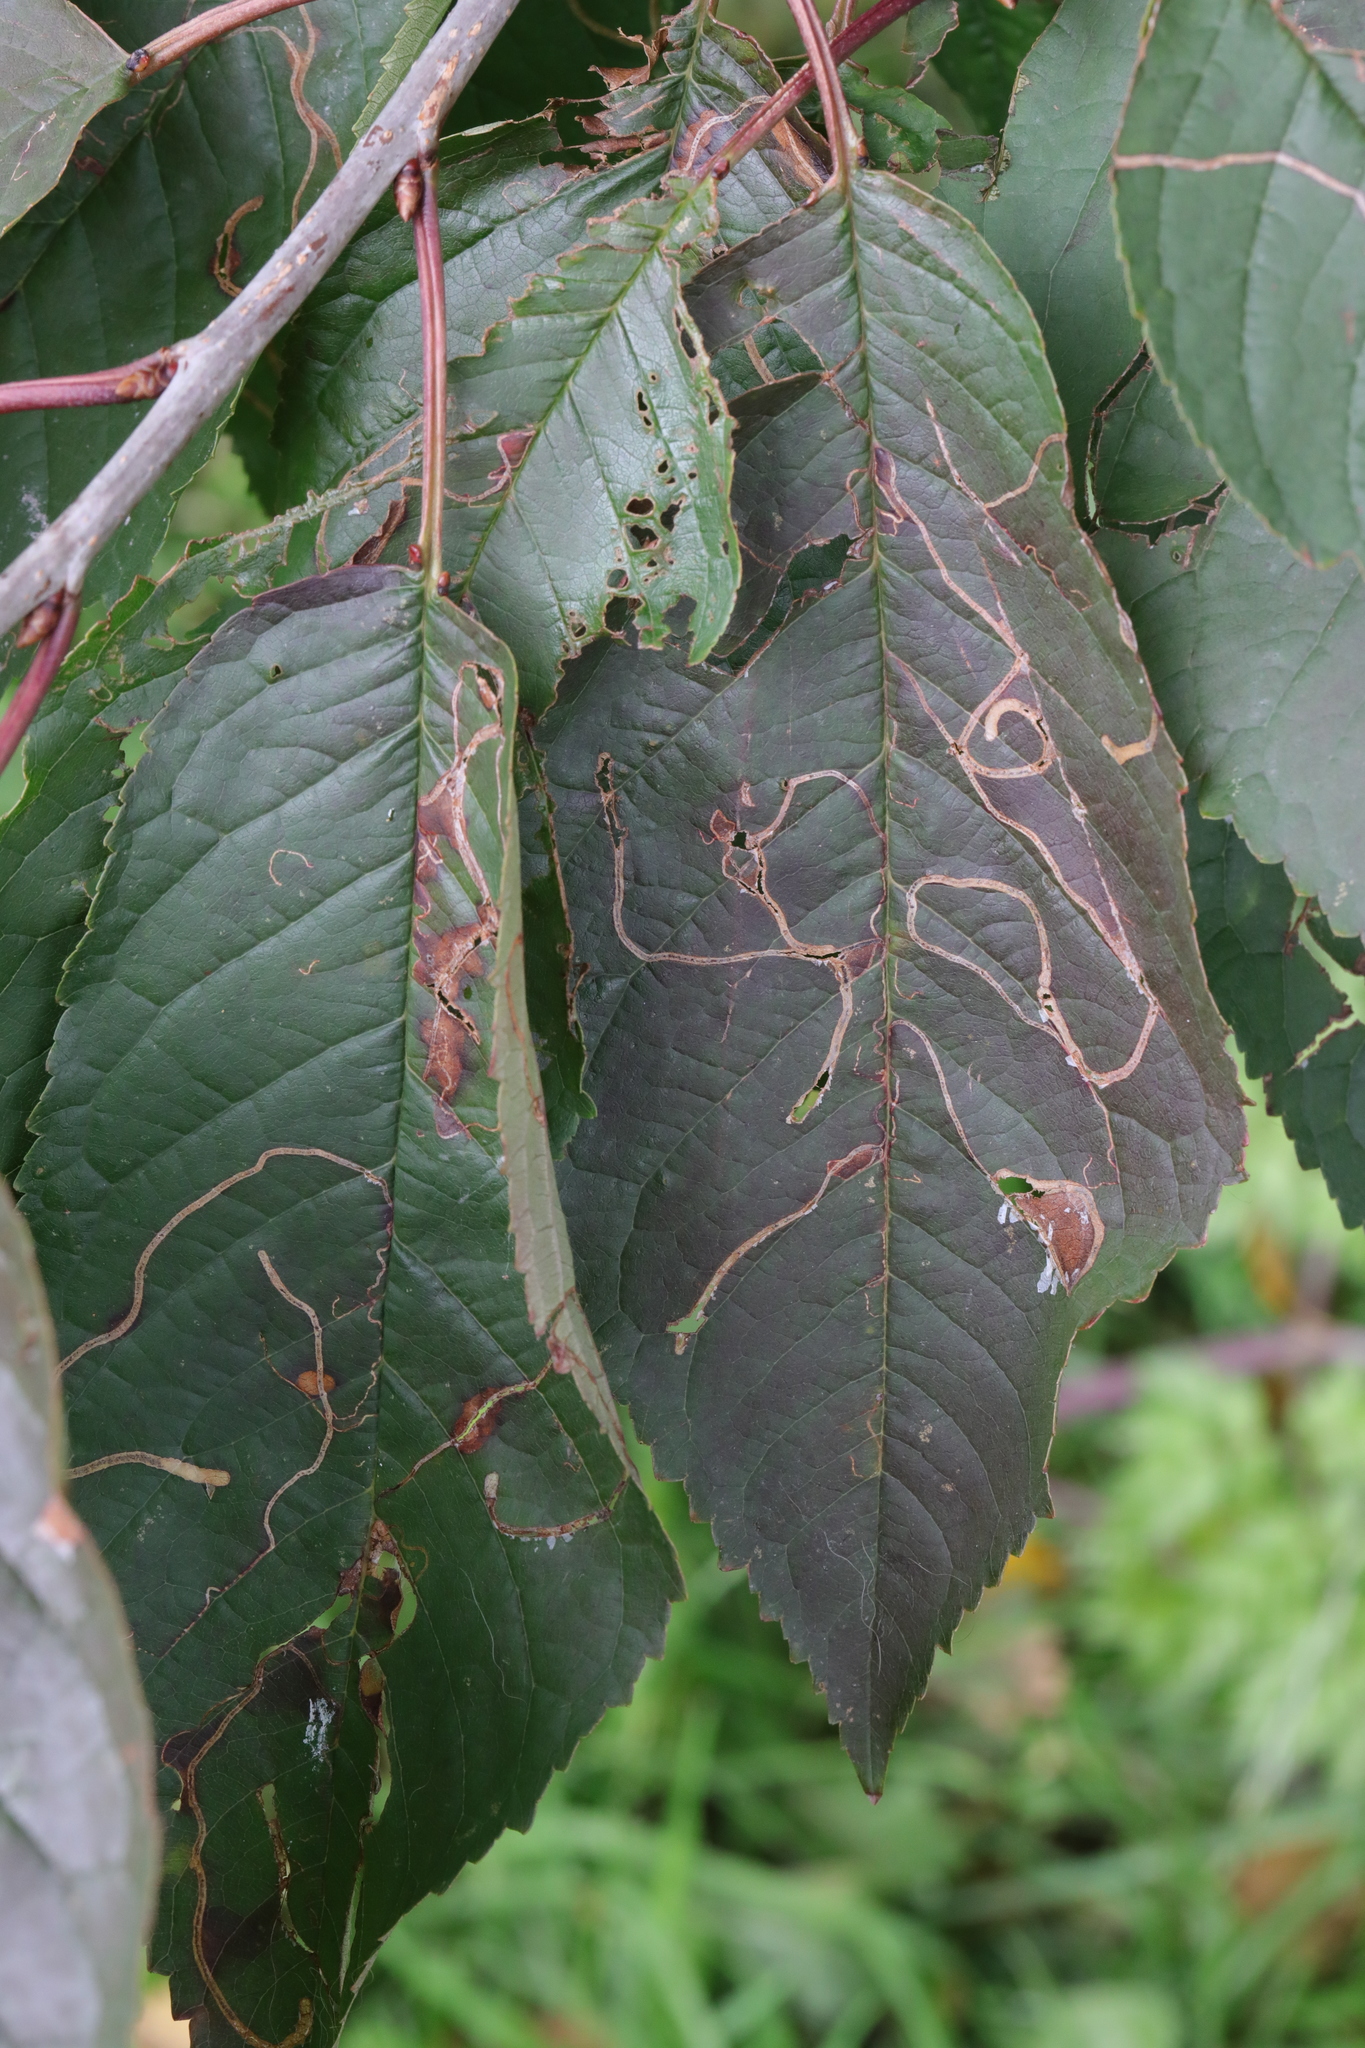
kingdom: Animalia
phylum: Arthropoda
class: Insecta
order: Lepidoptera
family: Lyonetiidae
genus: Lyonetia
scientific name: Lyonetia clerkella
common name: Apple leaf miner
